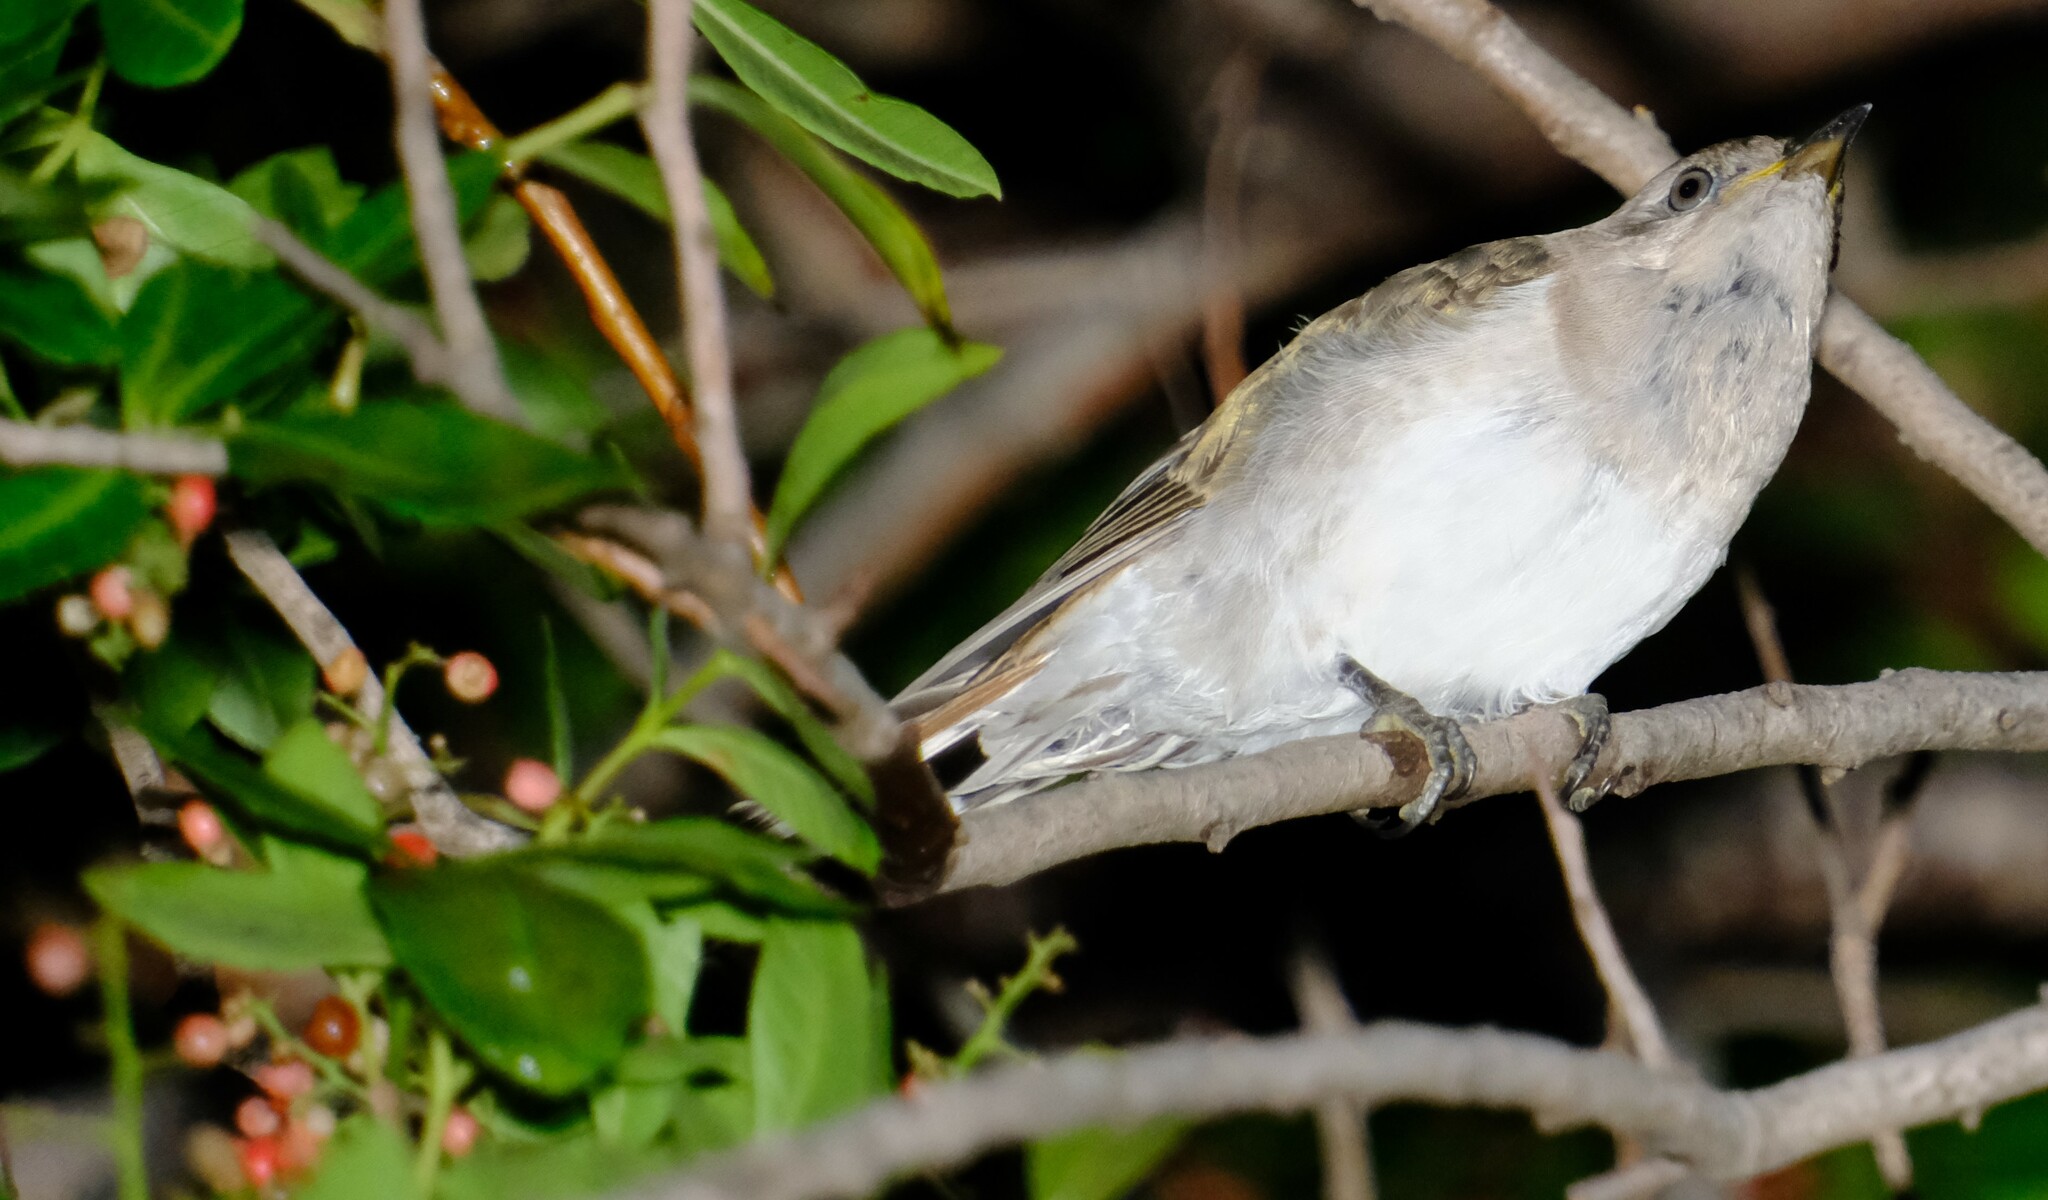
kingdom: Animalia
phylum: Chordata
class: Aves
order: Cuculiformes
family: Cuculidae
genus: Chrysococcyx
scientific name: Chrysococcyx basalis
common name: Horsfield's bronze cuckoo
